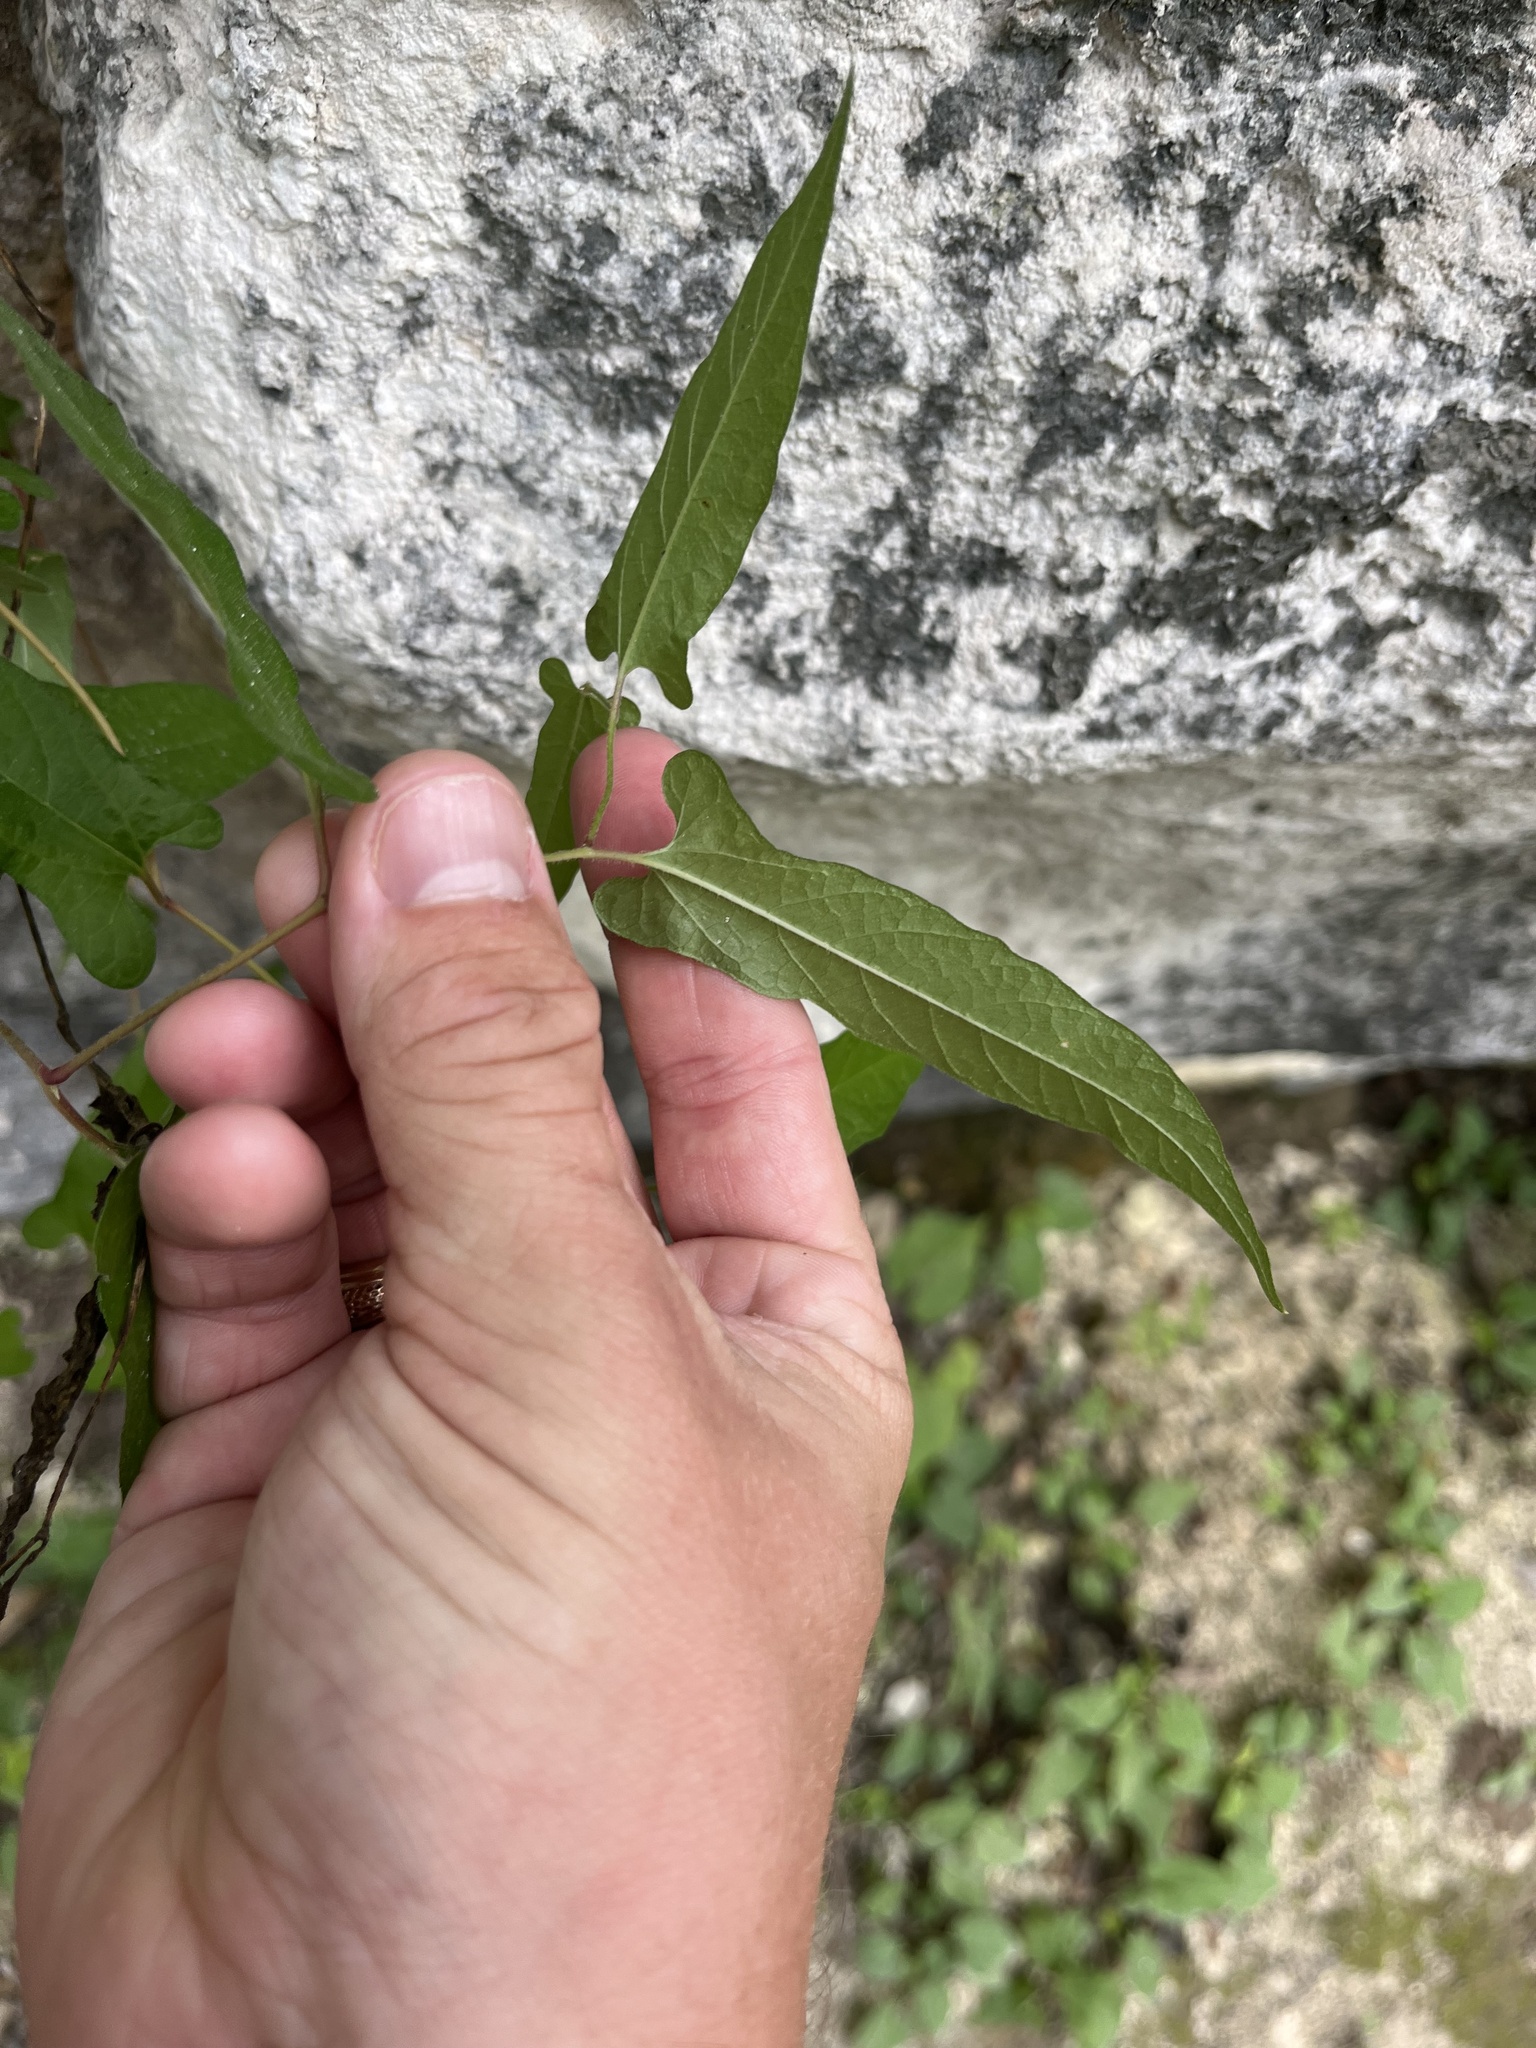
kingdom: Plantae
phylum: Tracheophyta
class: Magnoliopsida
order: Piperales
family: Aristolochiaceae
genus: Endodeca
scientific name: Endodeca serpentaria
